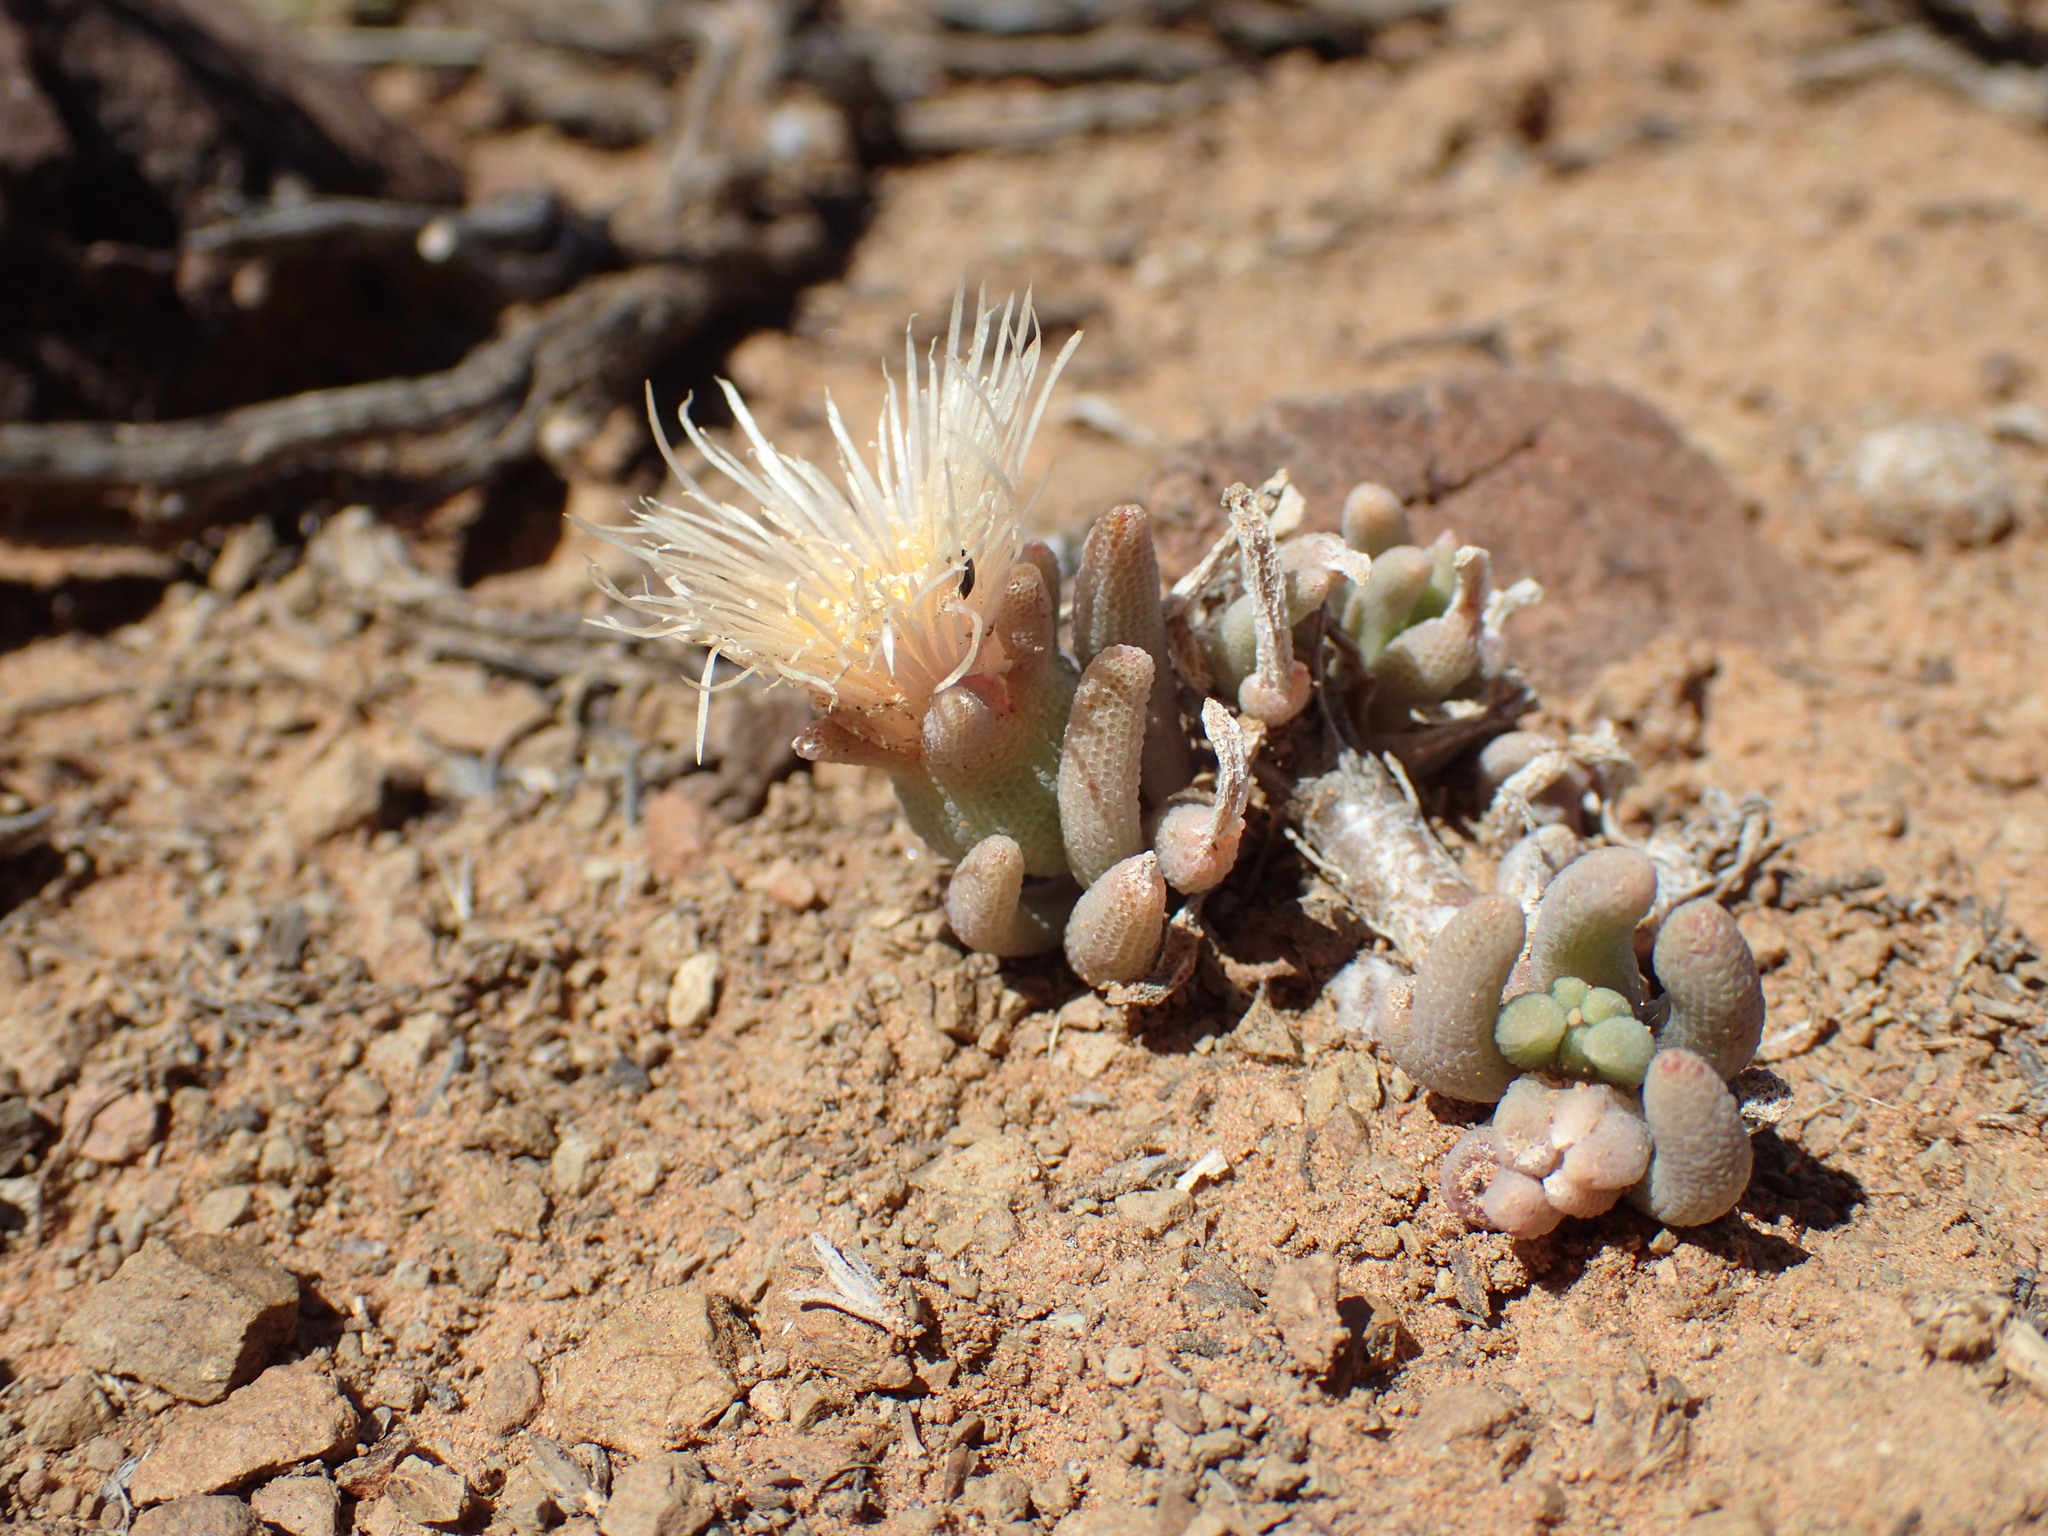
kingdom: Plantae
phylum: Tracheophyta
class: Magnoliopsida
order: Caryophyllales
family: Aizoaceae
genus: Mesembryanthemum
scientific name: Mesembryanthemum grossum
